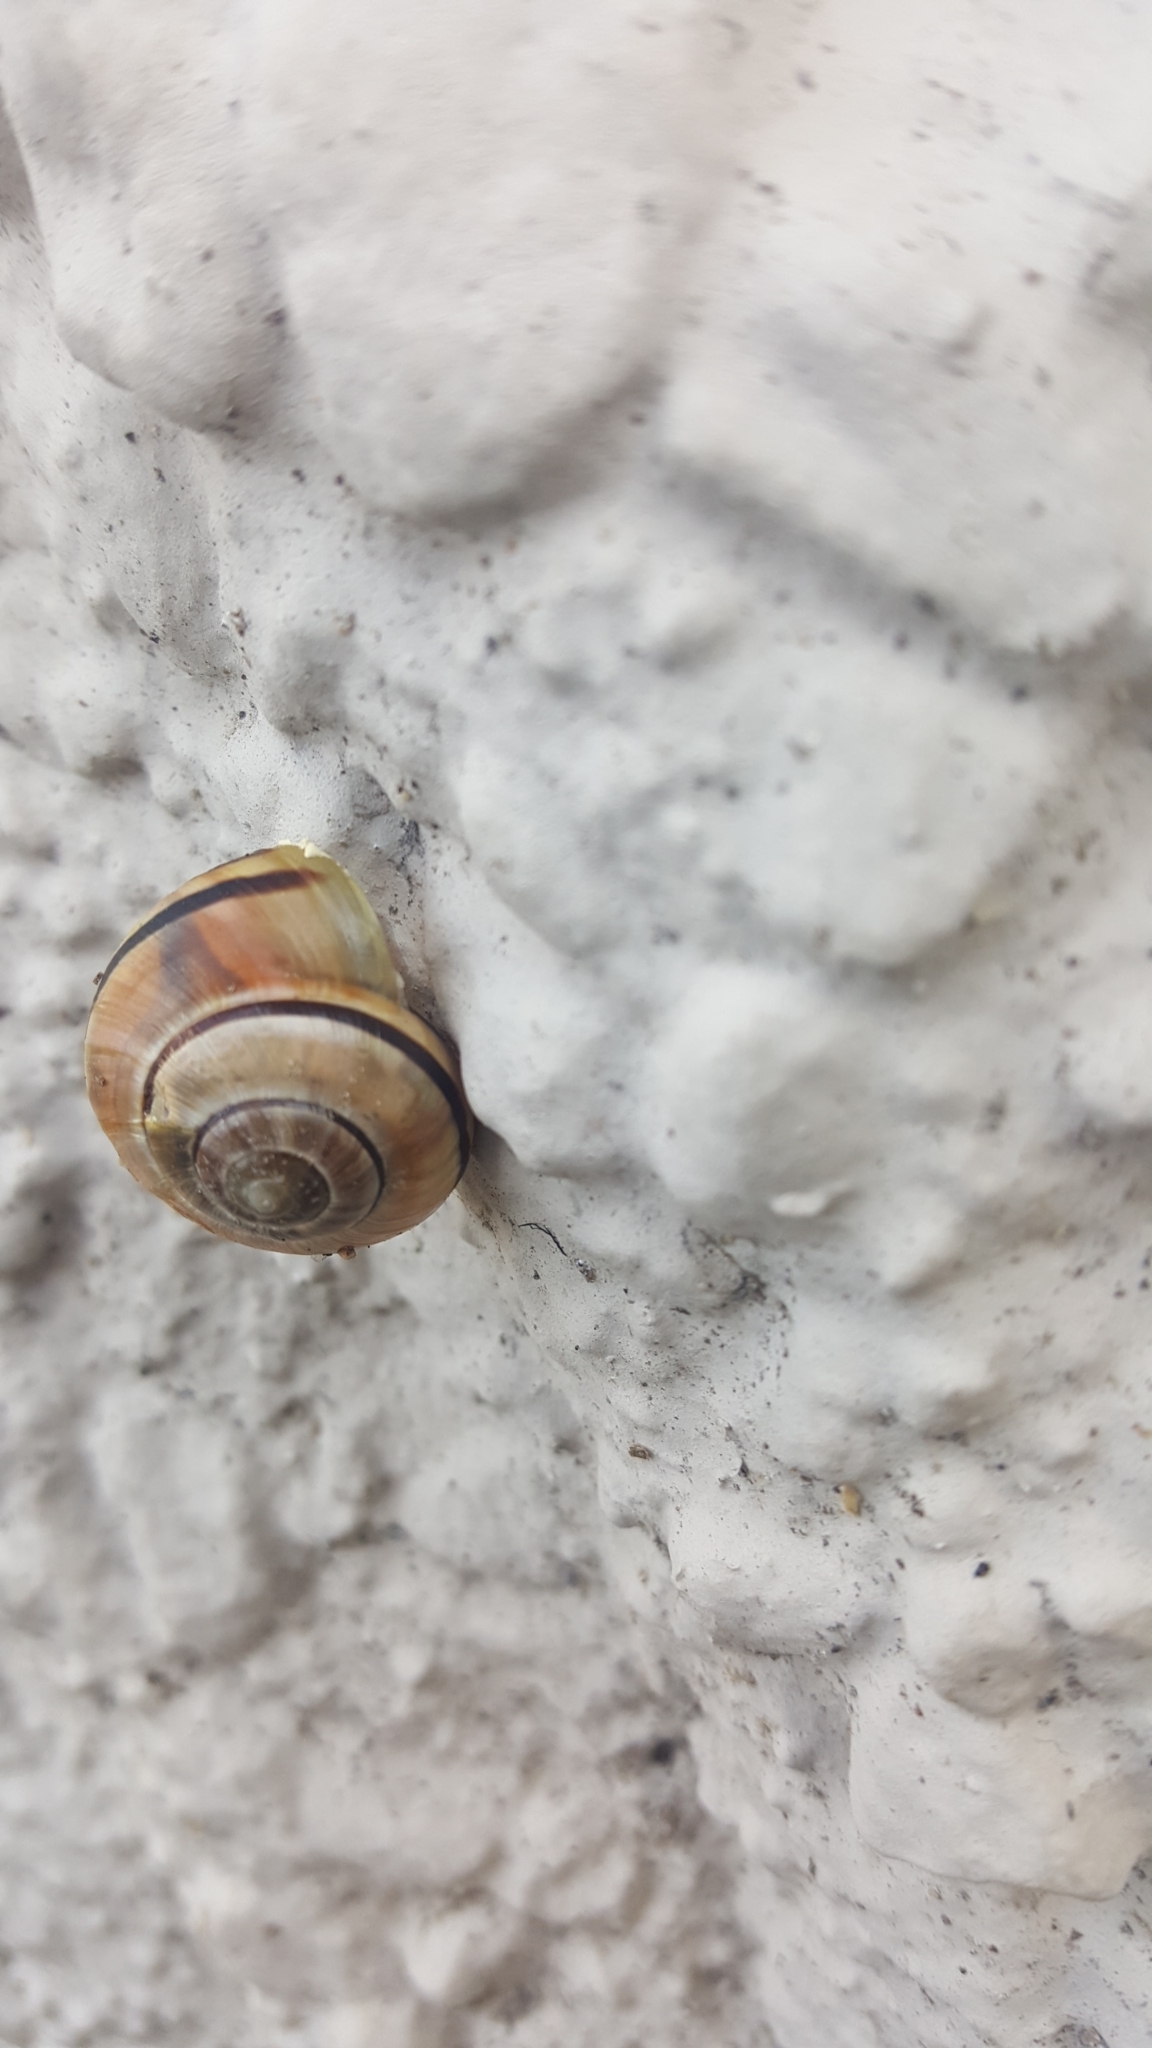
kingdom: Animalia
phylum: Mollusca
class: Gastropoda
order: Stylommatophora
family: Helicidae
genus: Cepaea
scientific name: Cepaea nemoralis
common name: Grovesnail
